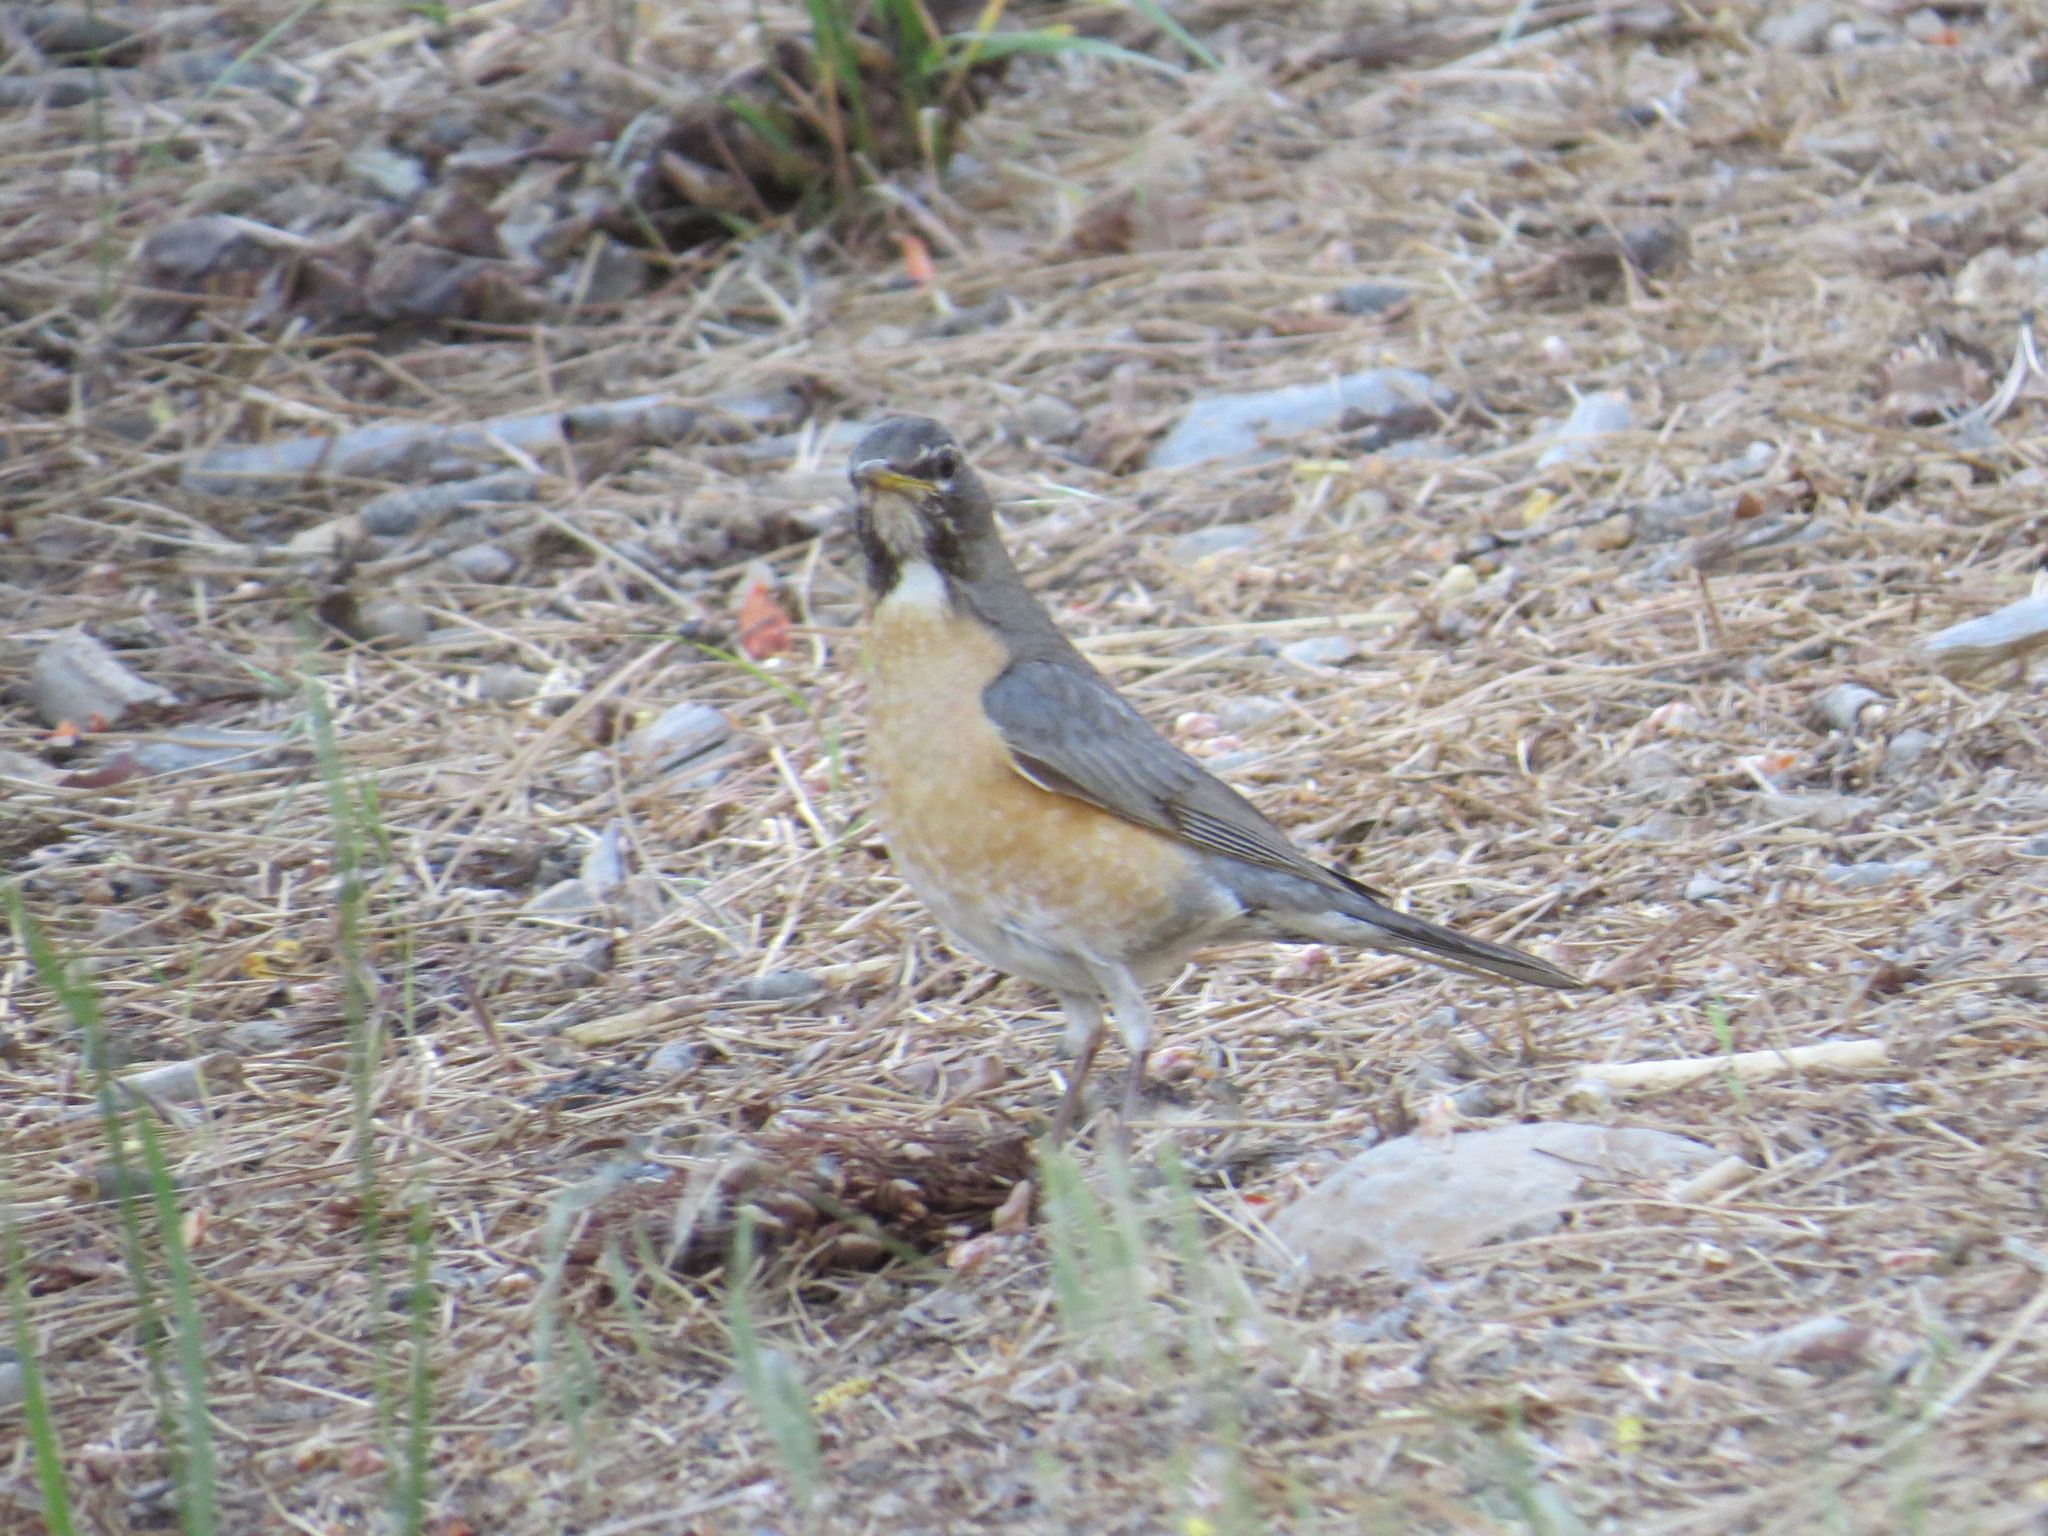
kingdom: Animalia
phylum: Chordata
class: Aves
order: Passeriformes
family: Turdidae
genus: Turdus
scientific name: Turdus migratorius
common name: American robin
